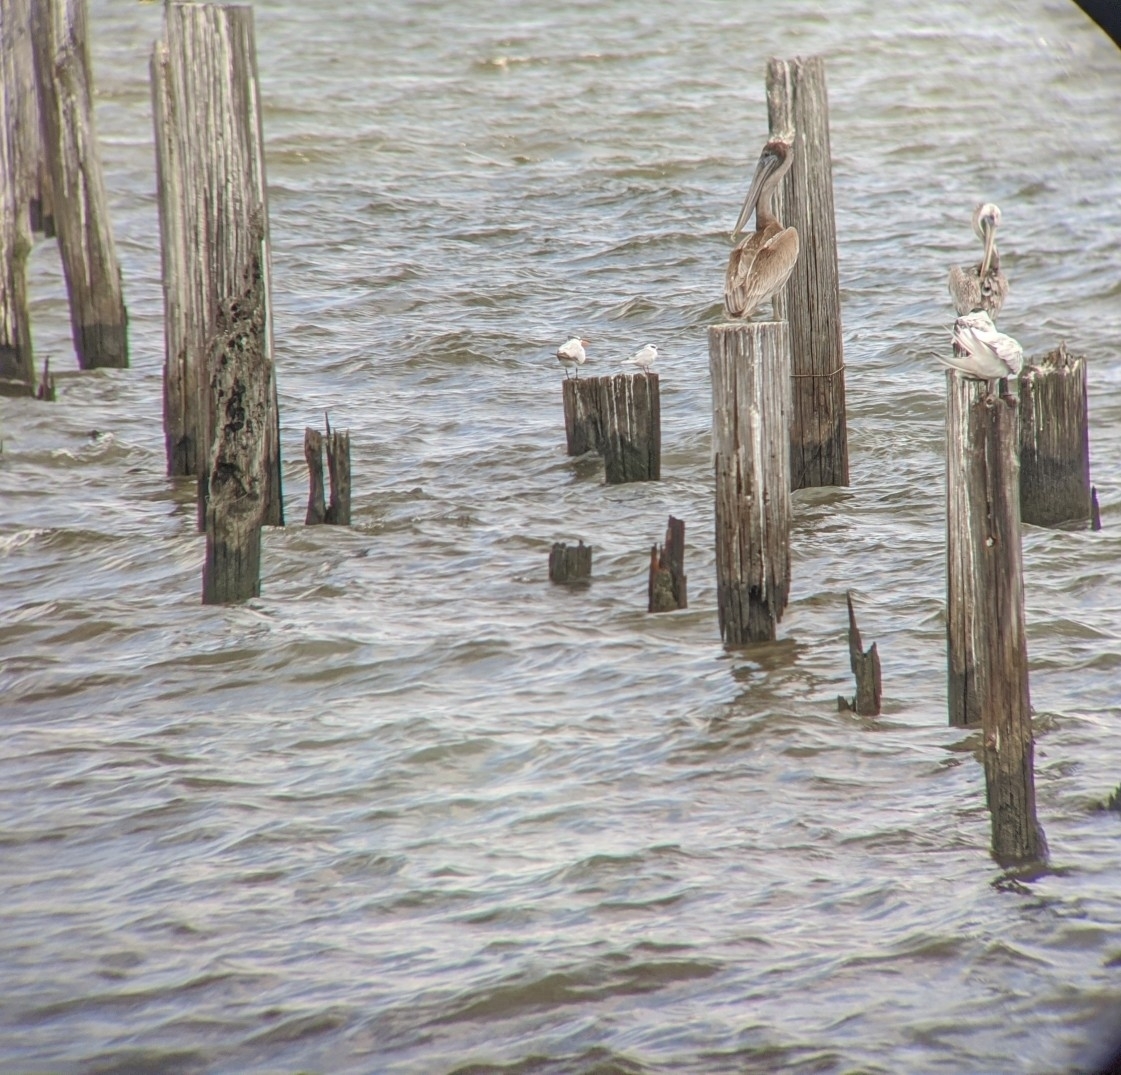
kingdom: Animalia
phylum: Chordata
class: Aves
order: Charadriiformes
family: Laridae
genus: Sterna
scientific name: Sterna forsteri
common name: Forster's tern
